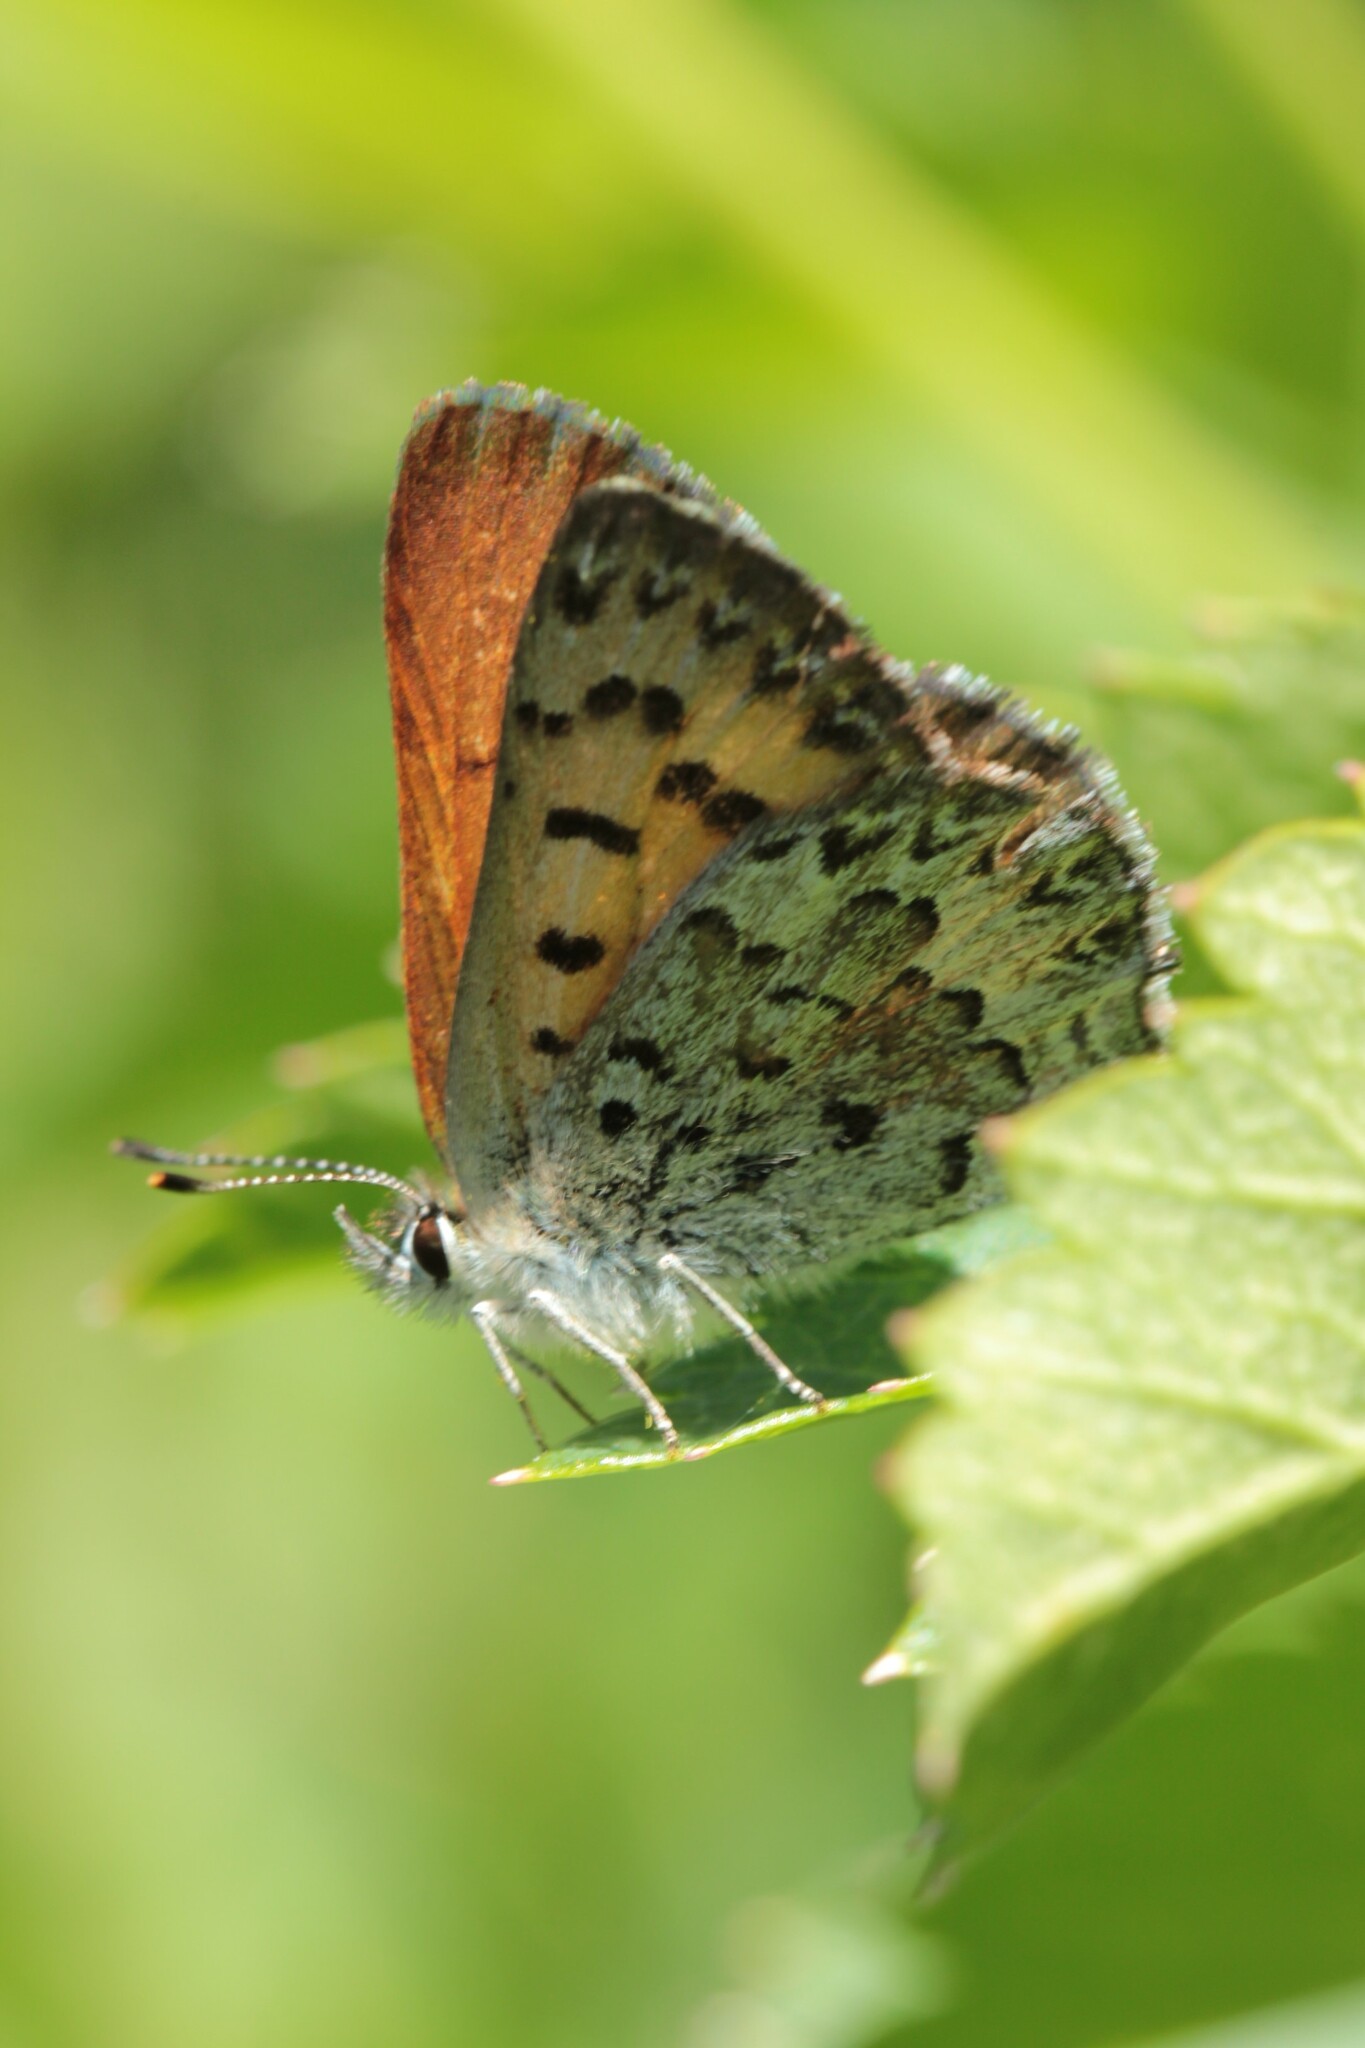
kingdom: Animalia
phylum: Arthropoda
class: Insecta
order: Lepidoptera
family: Lycaenidae
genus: Tharsalea
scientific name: Tharsalea mariposa
